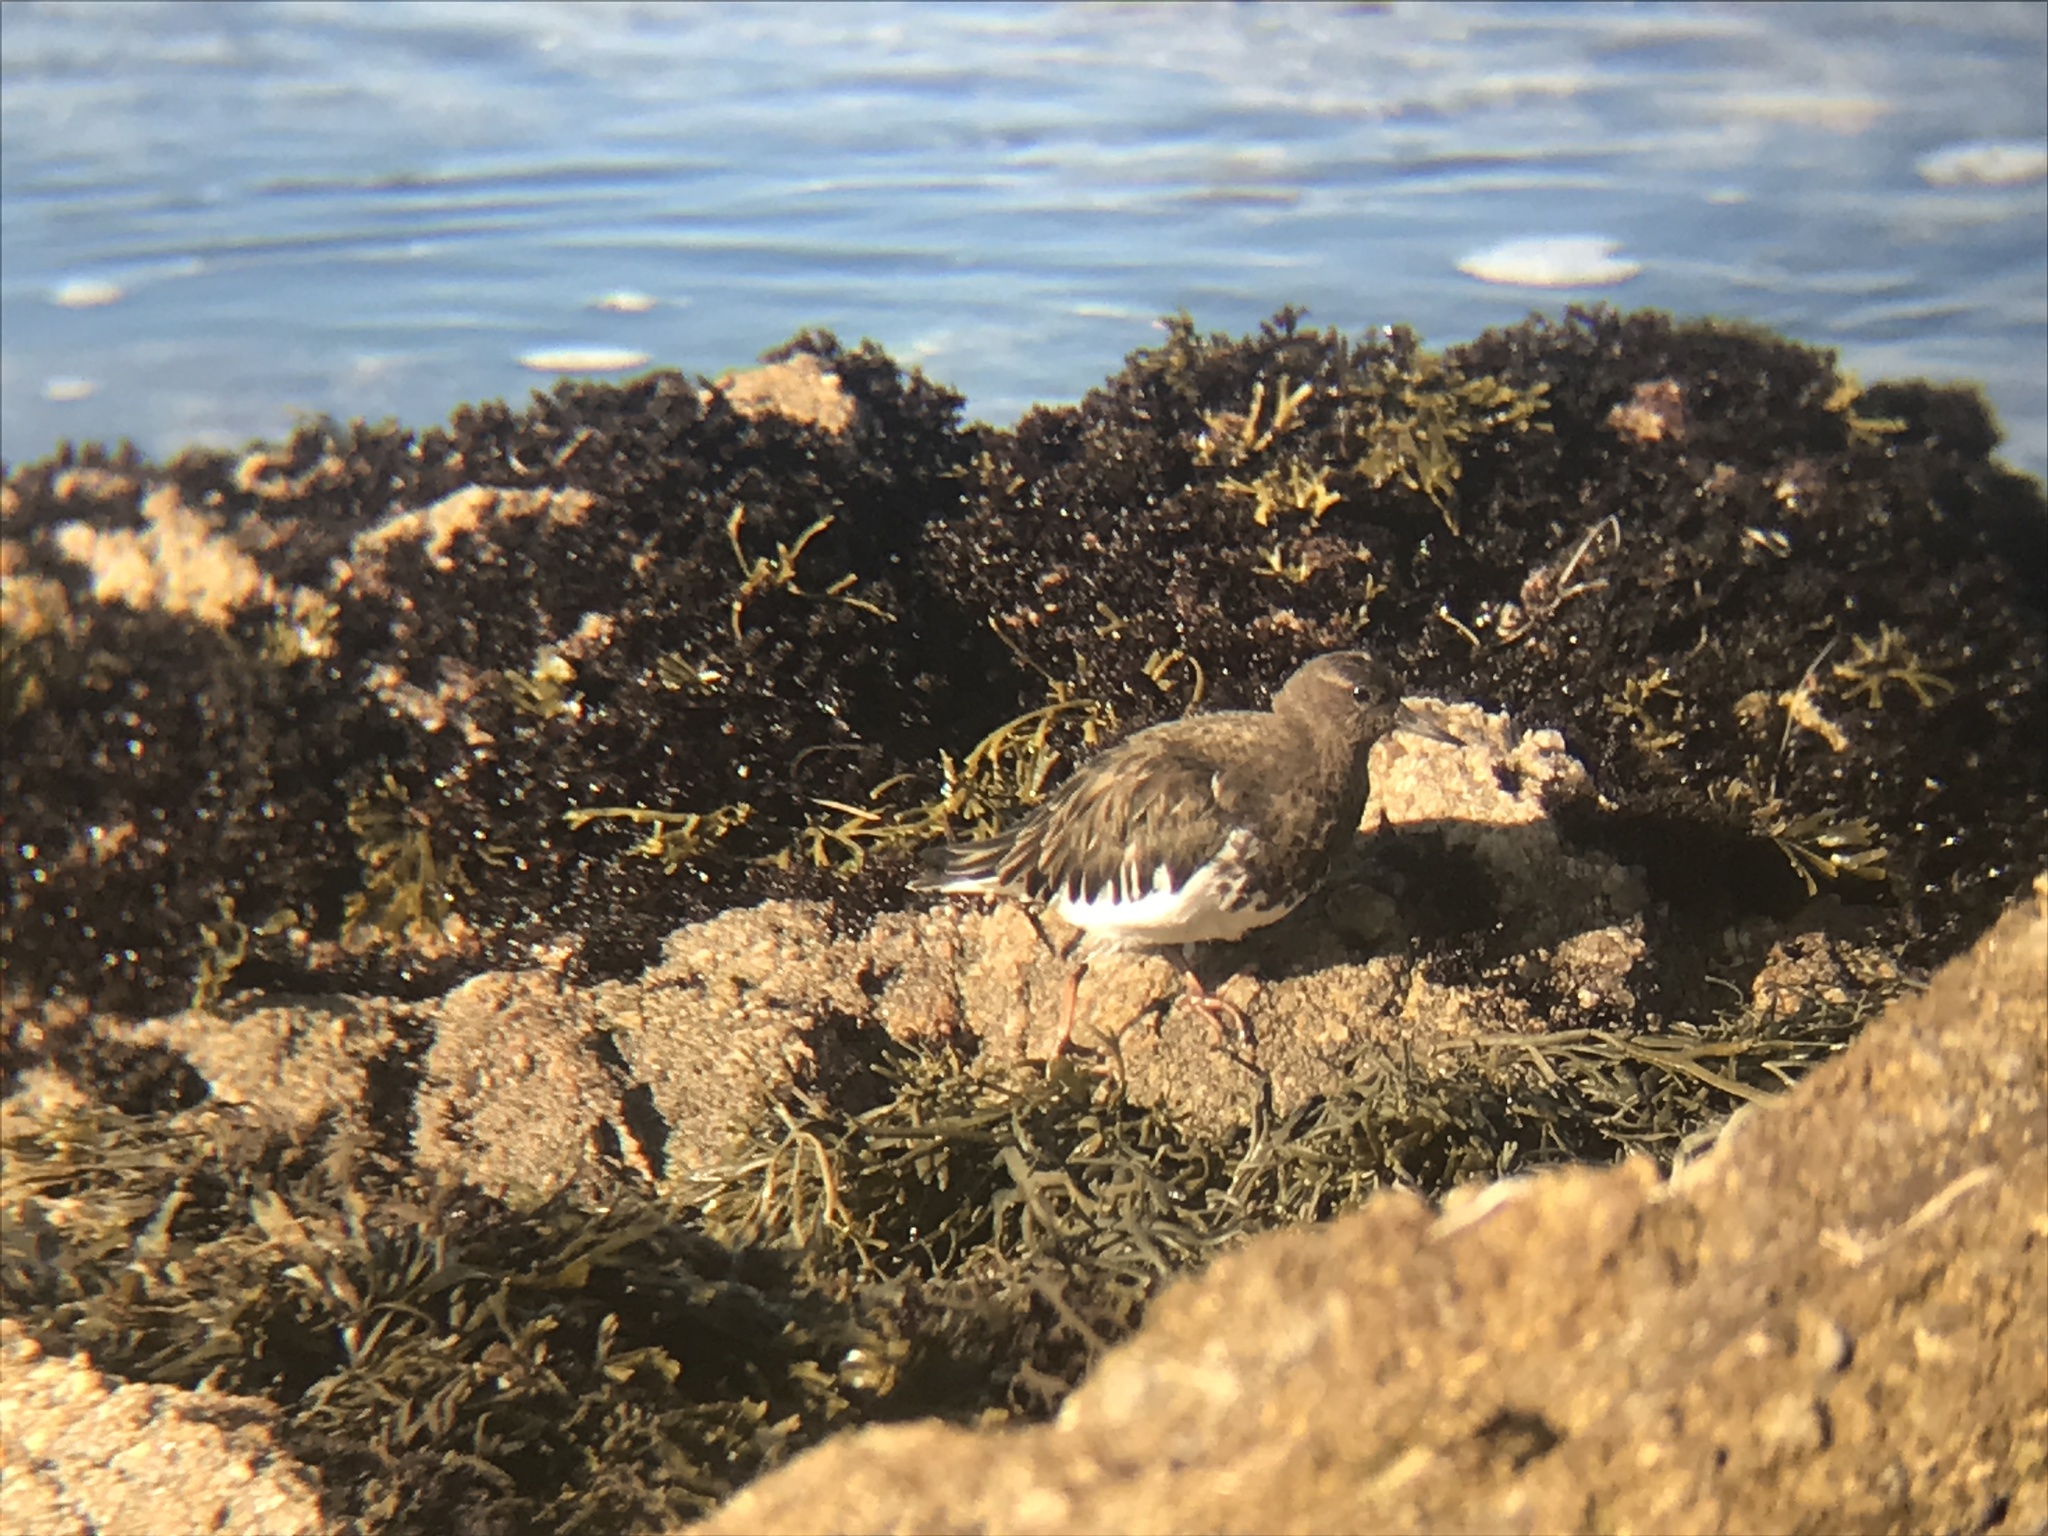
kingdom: Animalia
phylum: Chordata
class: Aves
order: Charadriiformes
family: Scolopacidae
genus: Arenaria
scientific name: Arenaria melanocephala
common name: Black turnstone
